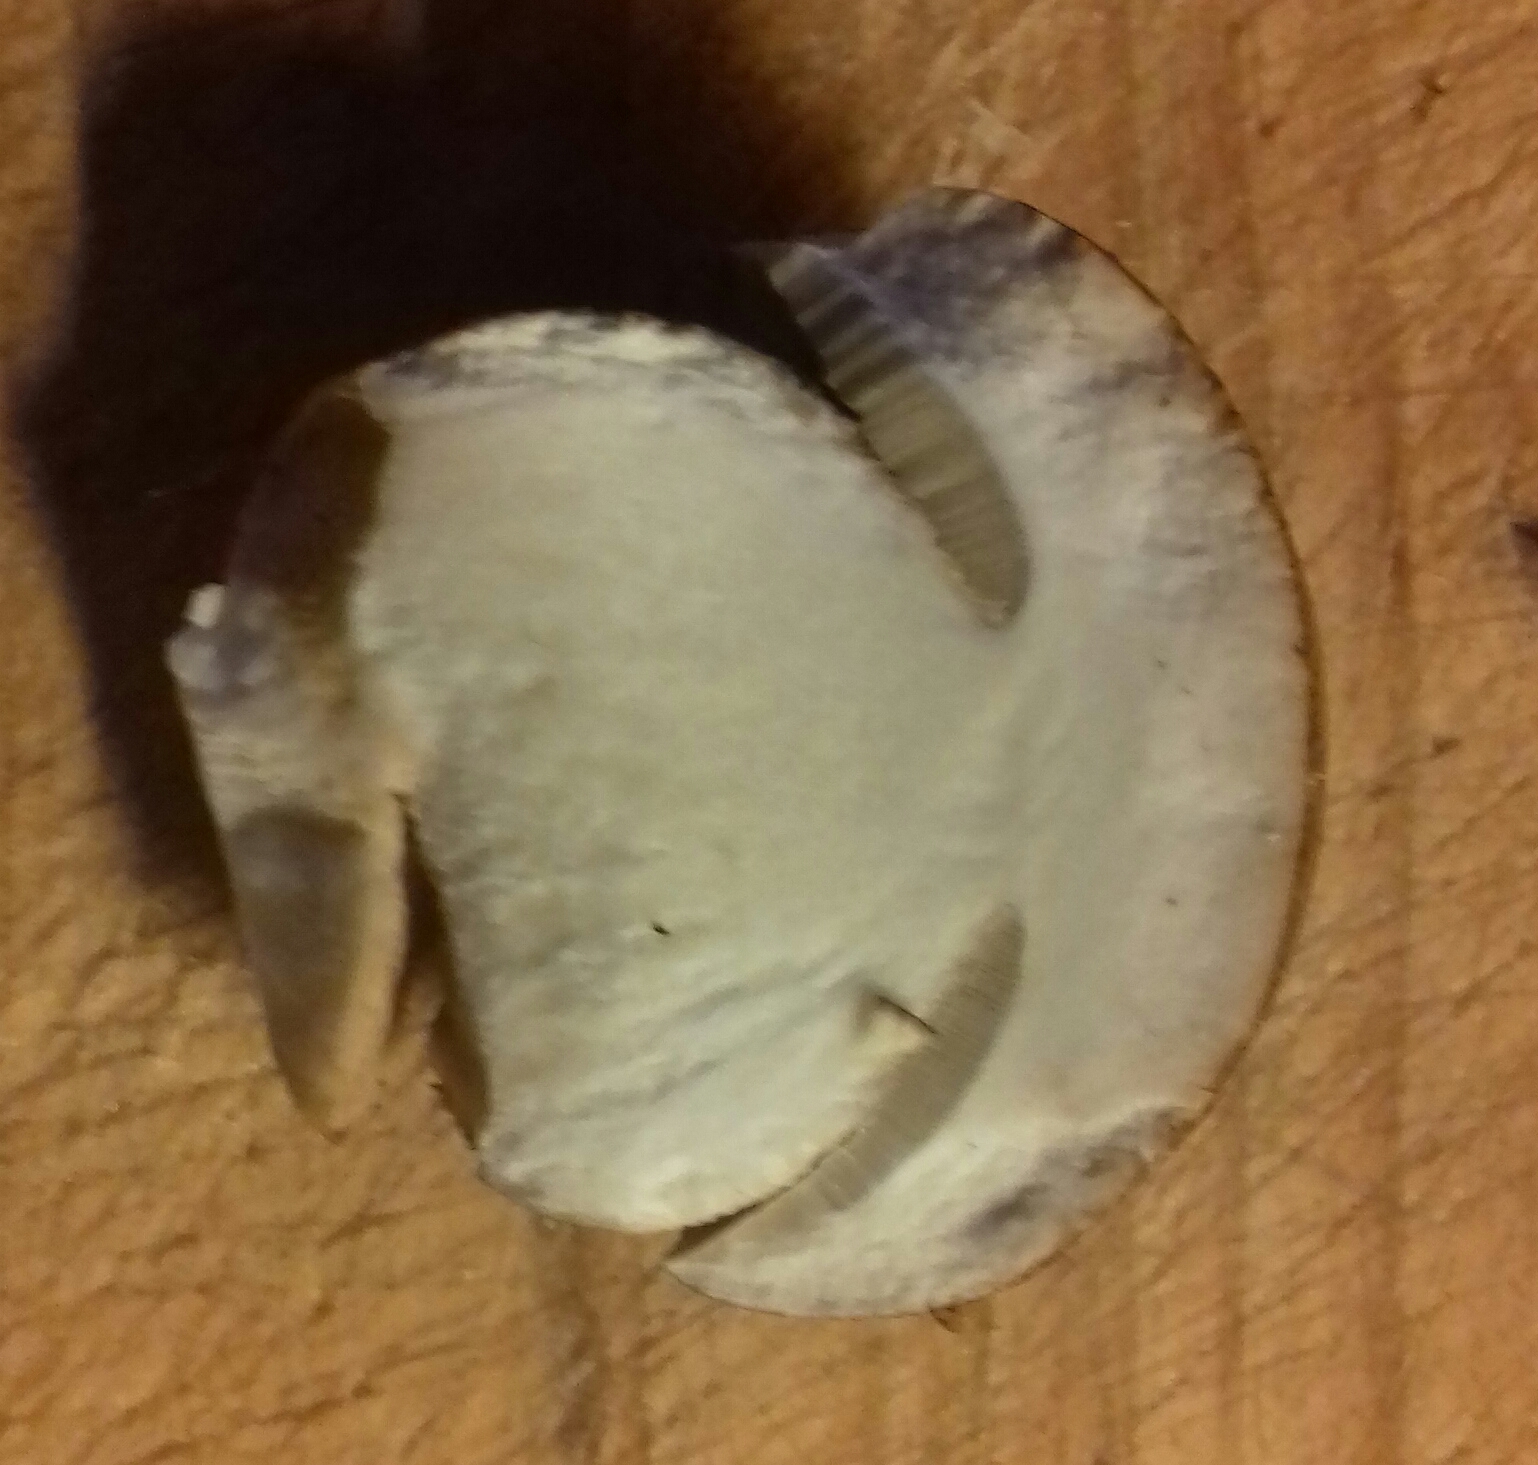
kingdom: Fungi
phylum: Basidiomycota
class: Agaricomycetes
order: Boletales
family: Boletaceae
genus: Leccinum
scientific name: Leccinum scabrum
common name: Blushing bolete
